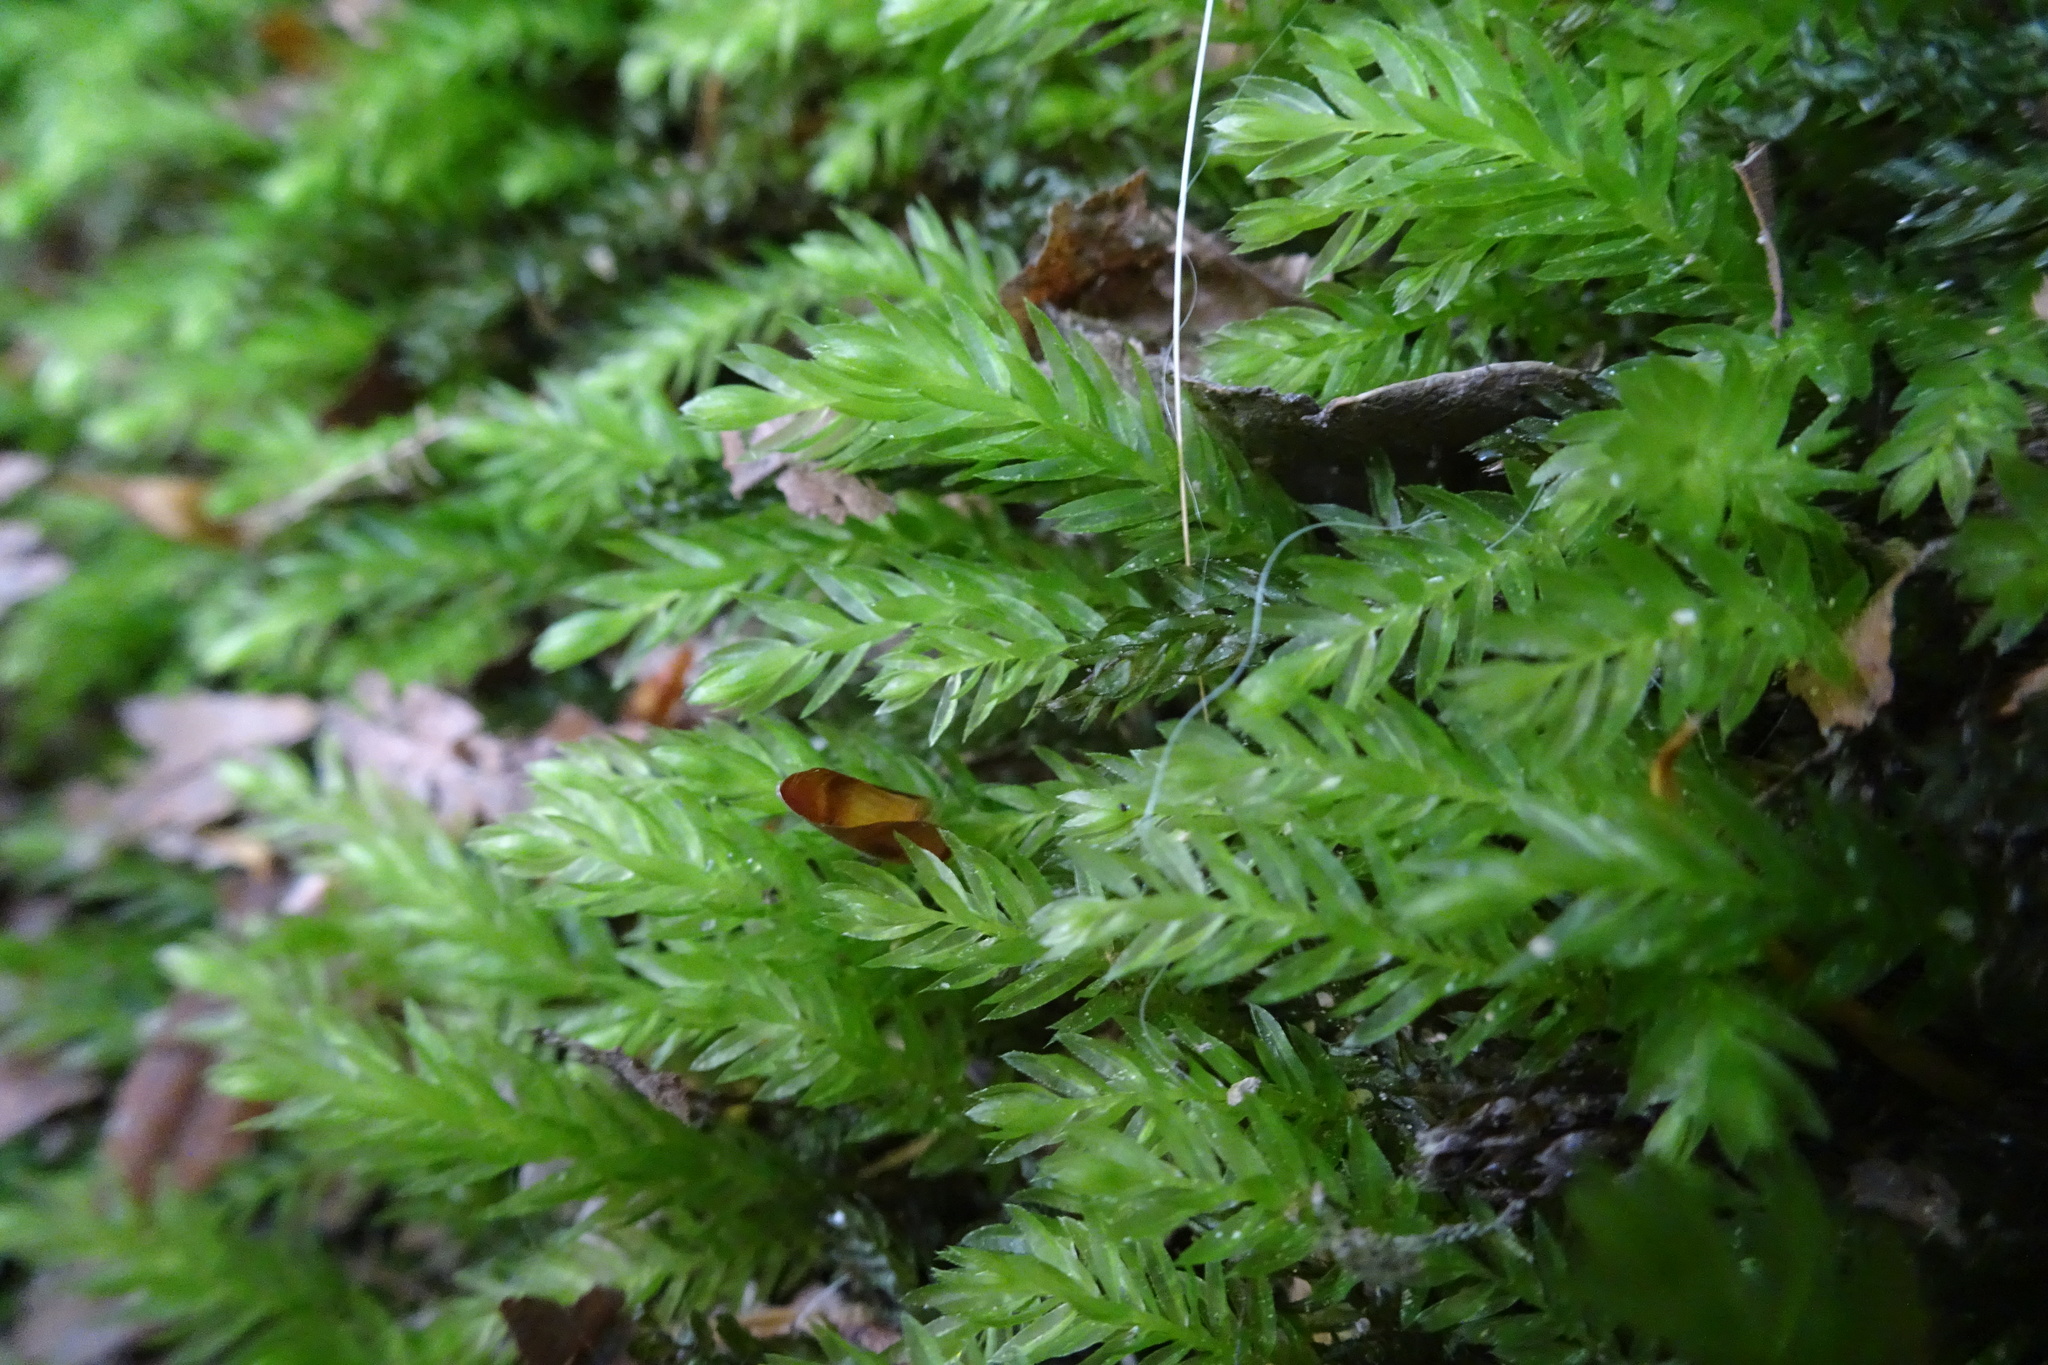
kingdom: Plantae
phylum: Bryophyta
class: Bryopsida
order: Bryales
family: Mniaceae
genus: Mnium
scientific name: Mnium hornum
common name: Swan's-neck leafy moss
